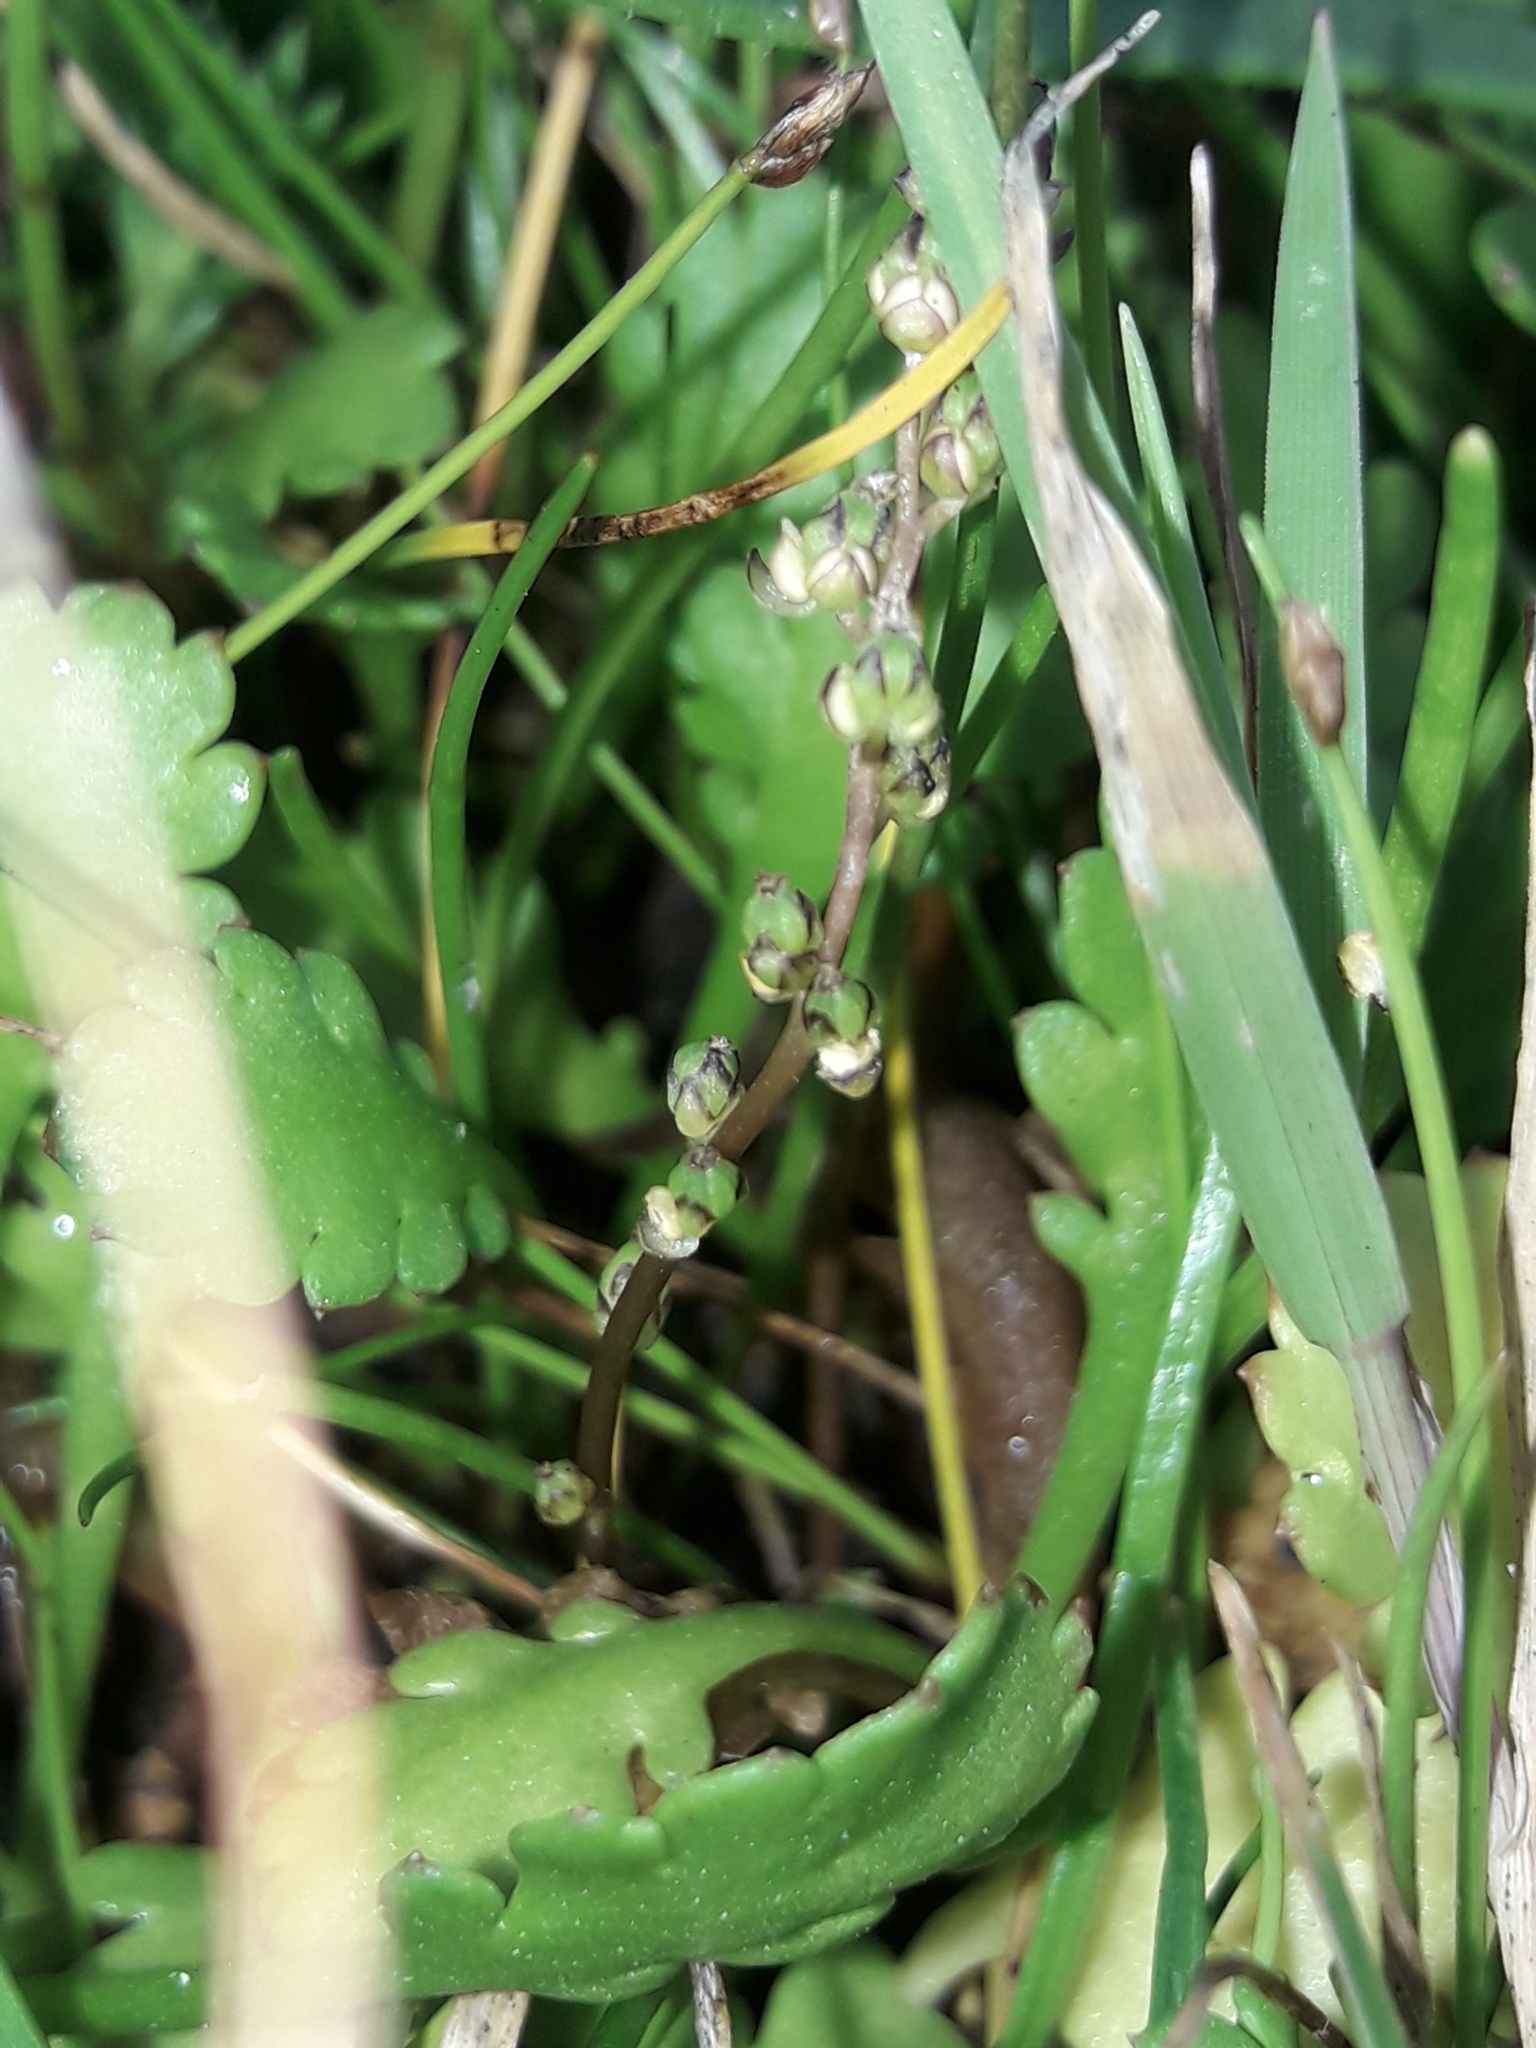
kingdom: Plantae
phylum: Tracheophyta
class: Liliopsida
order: Alismatales
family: Juncaginaceae
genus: Triglochin
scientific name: Triglochin striata
